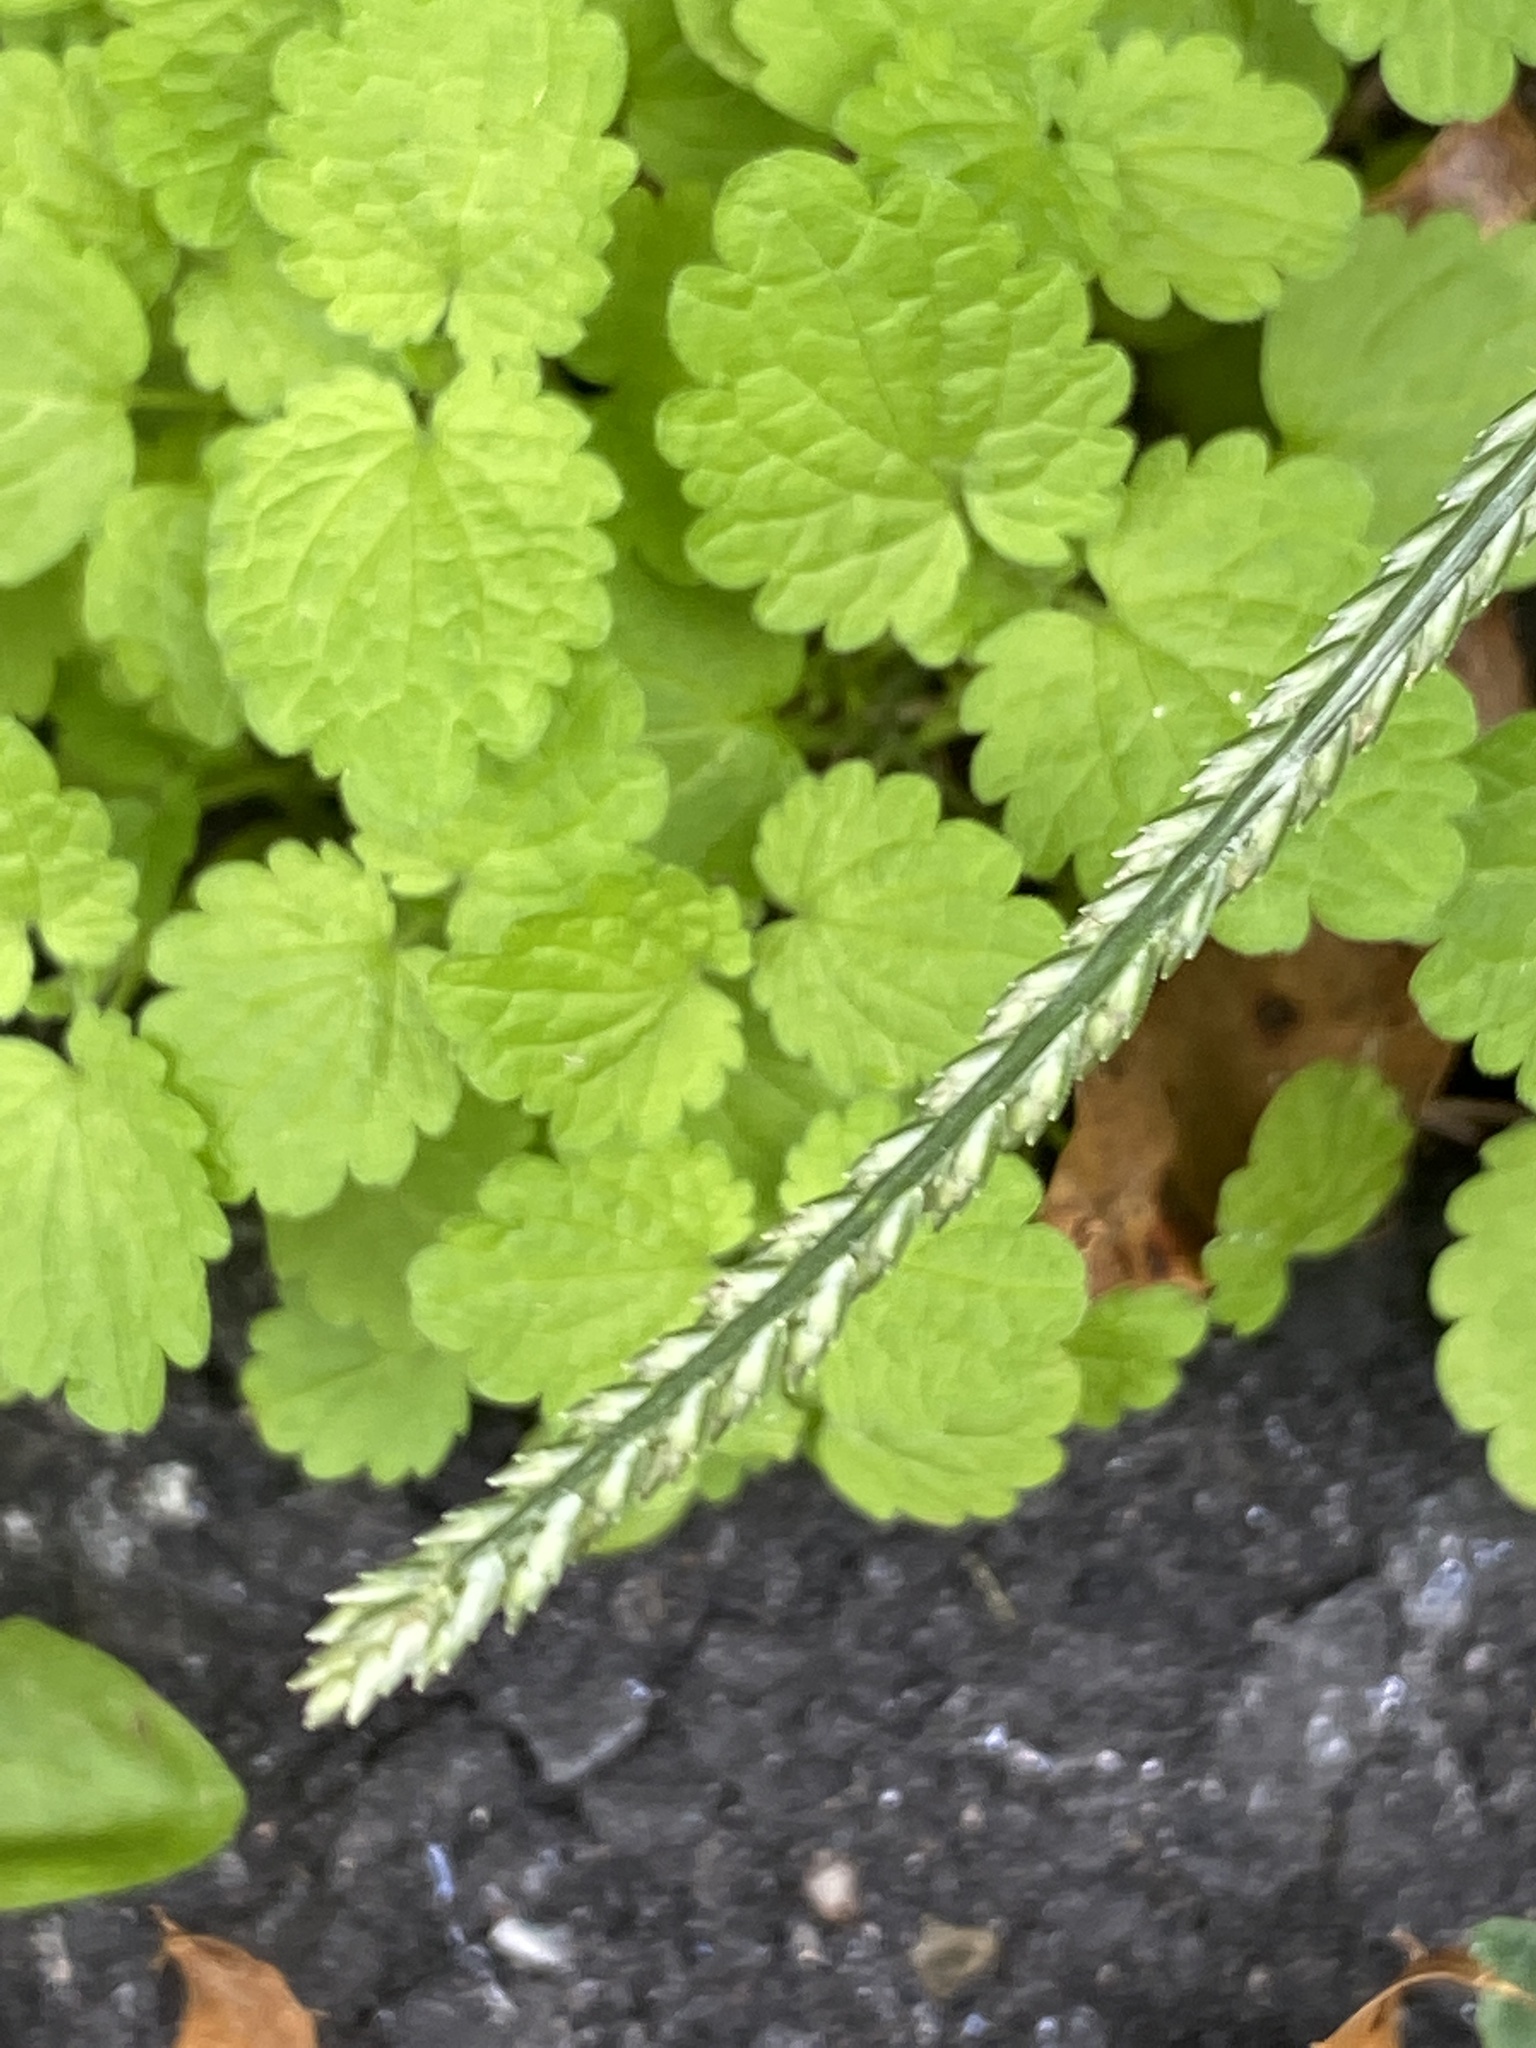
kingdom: Plantae
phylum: Tracheophyta
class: Liliopsida
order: Poales
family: Poaceae
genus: Eleusine
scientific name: Eleusine indica
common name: Yard-grass
